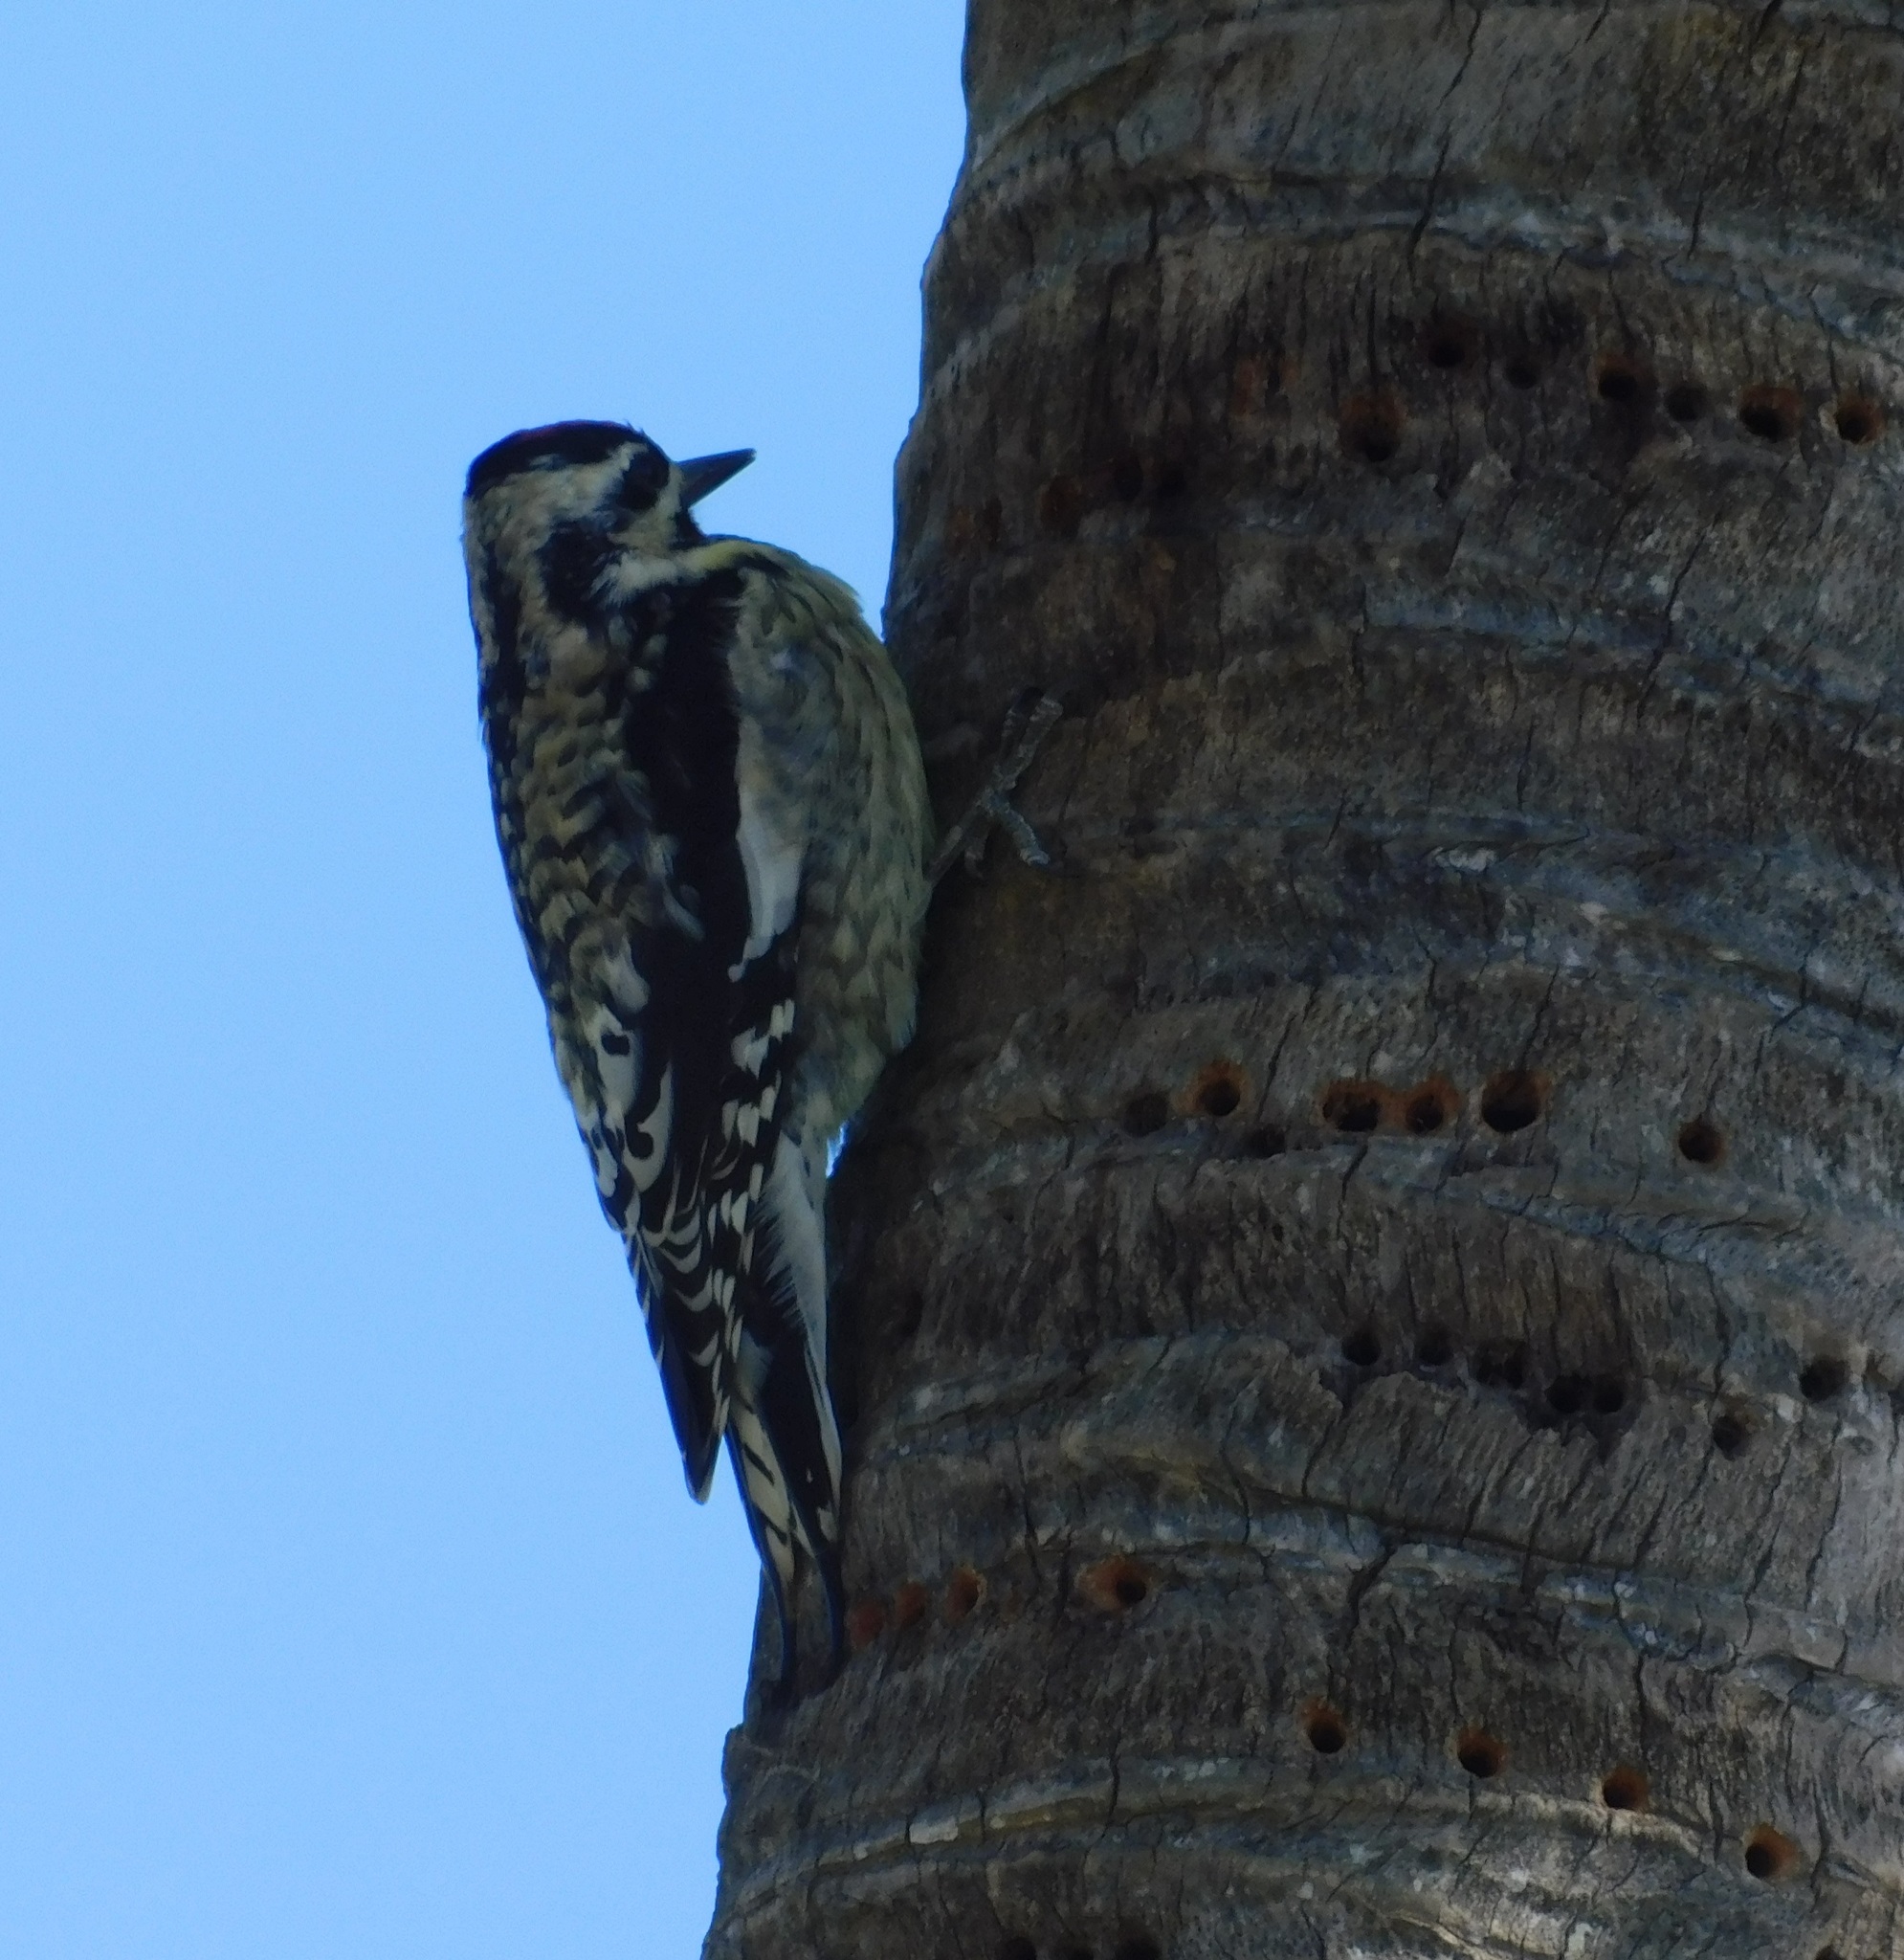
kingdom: Animalia
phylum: Chordata
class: Aves
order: Piciformes
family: Picidae
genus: Sphyrapicus
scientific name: Sphyrapicus varius
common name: Yellow-bellied sapsucker
